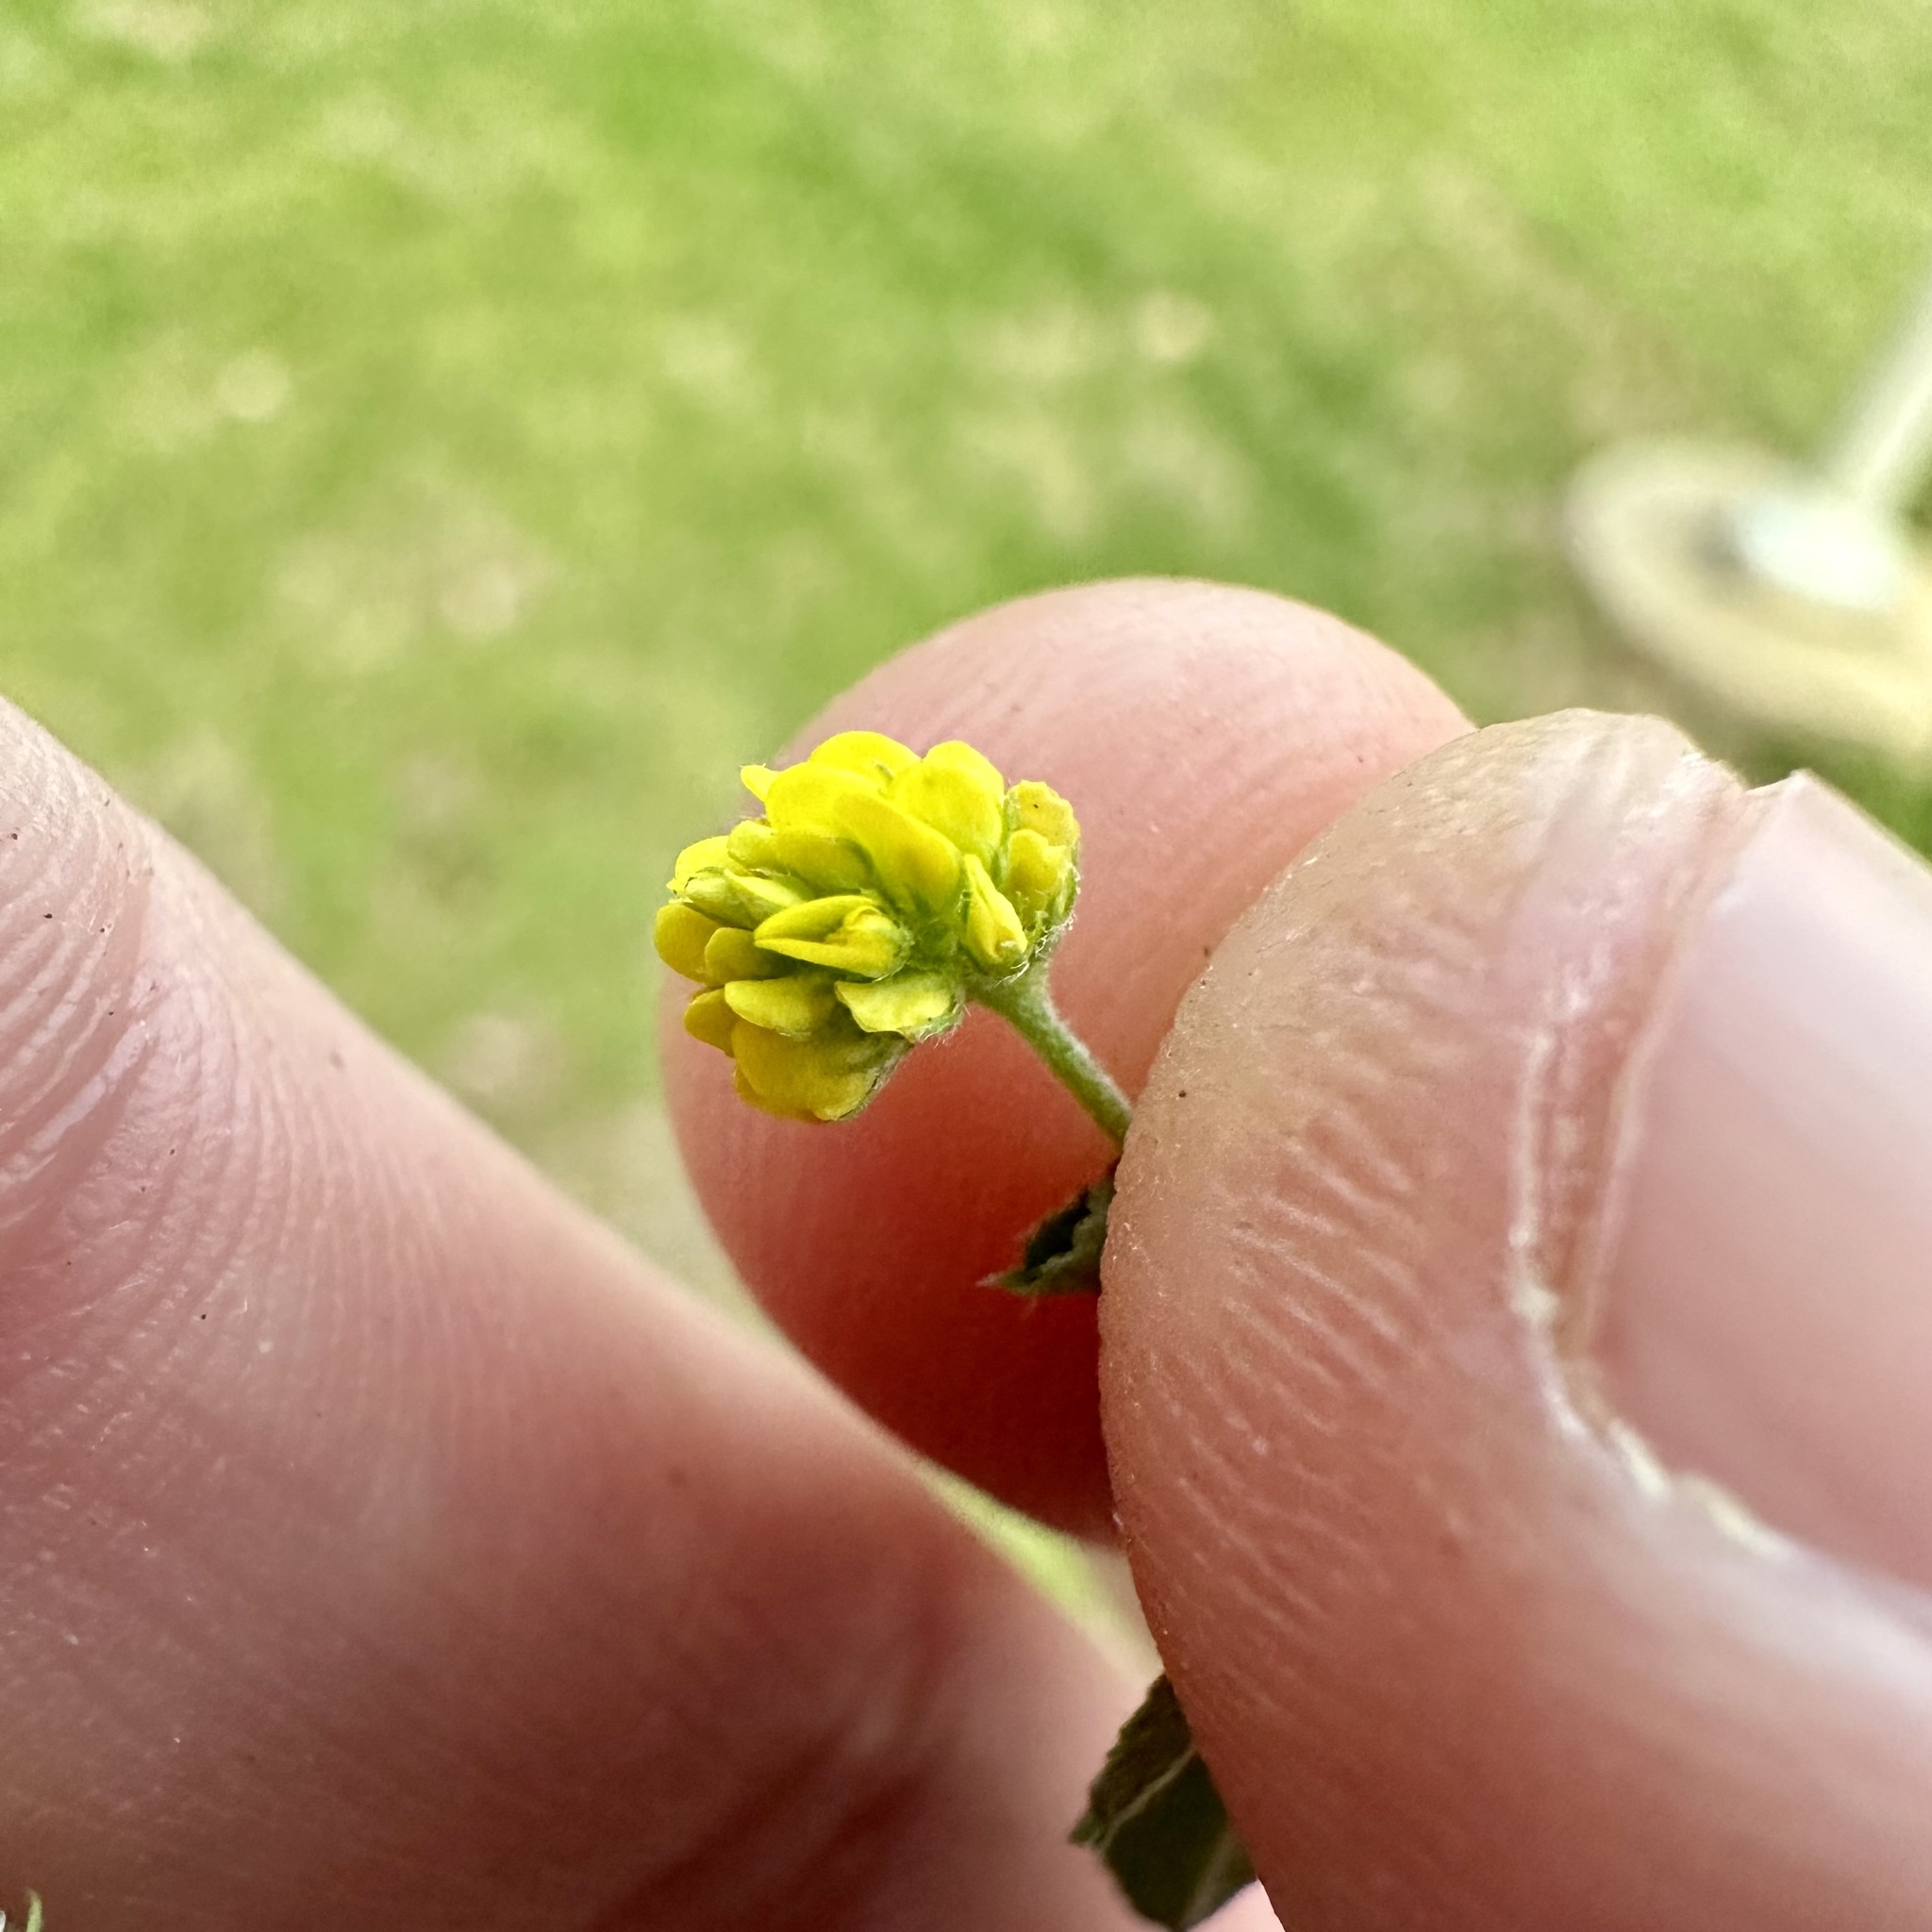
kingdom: Plantae
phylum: Tracheophyta
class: Magnoliopsida
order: Fabales
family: Fabaceae
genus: Medicago
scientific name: Medicago lupulina
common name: Black medick
